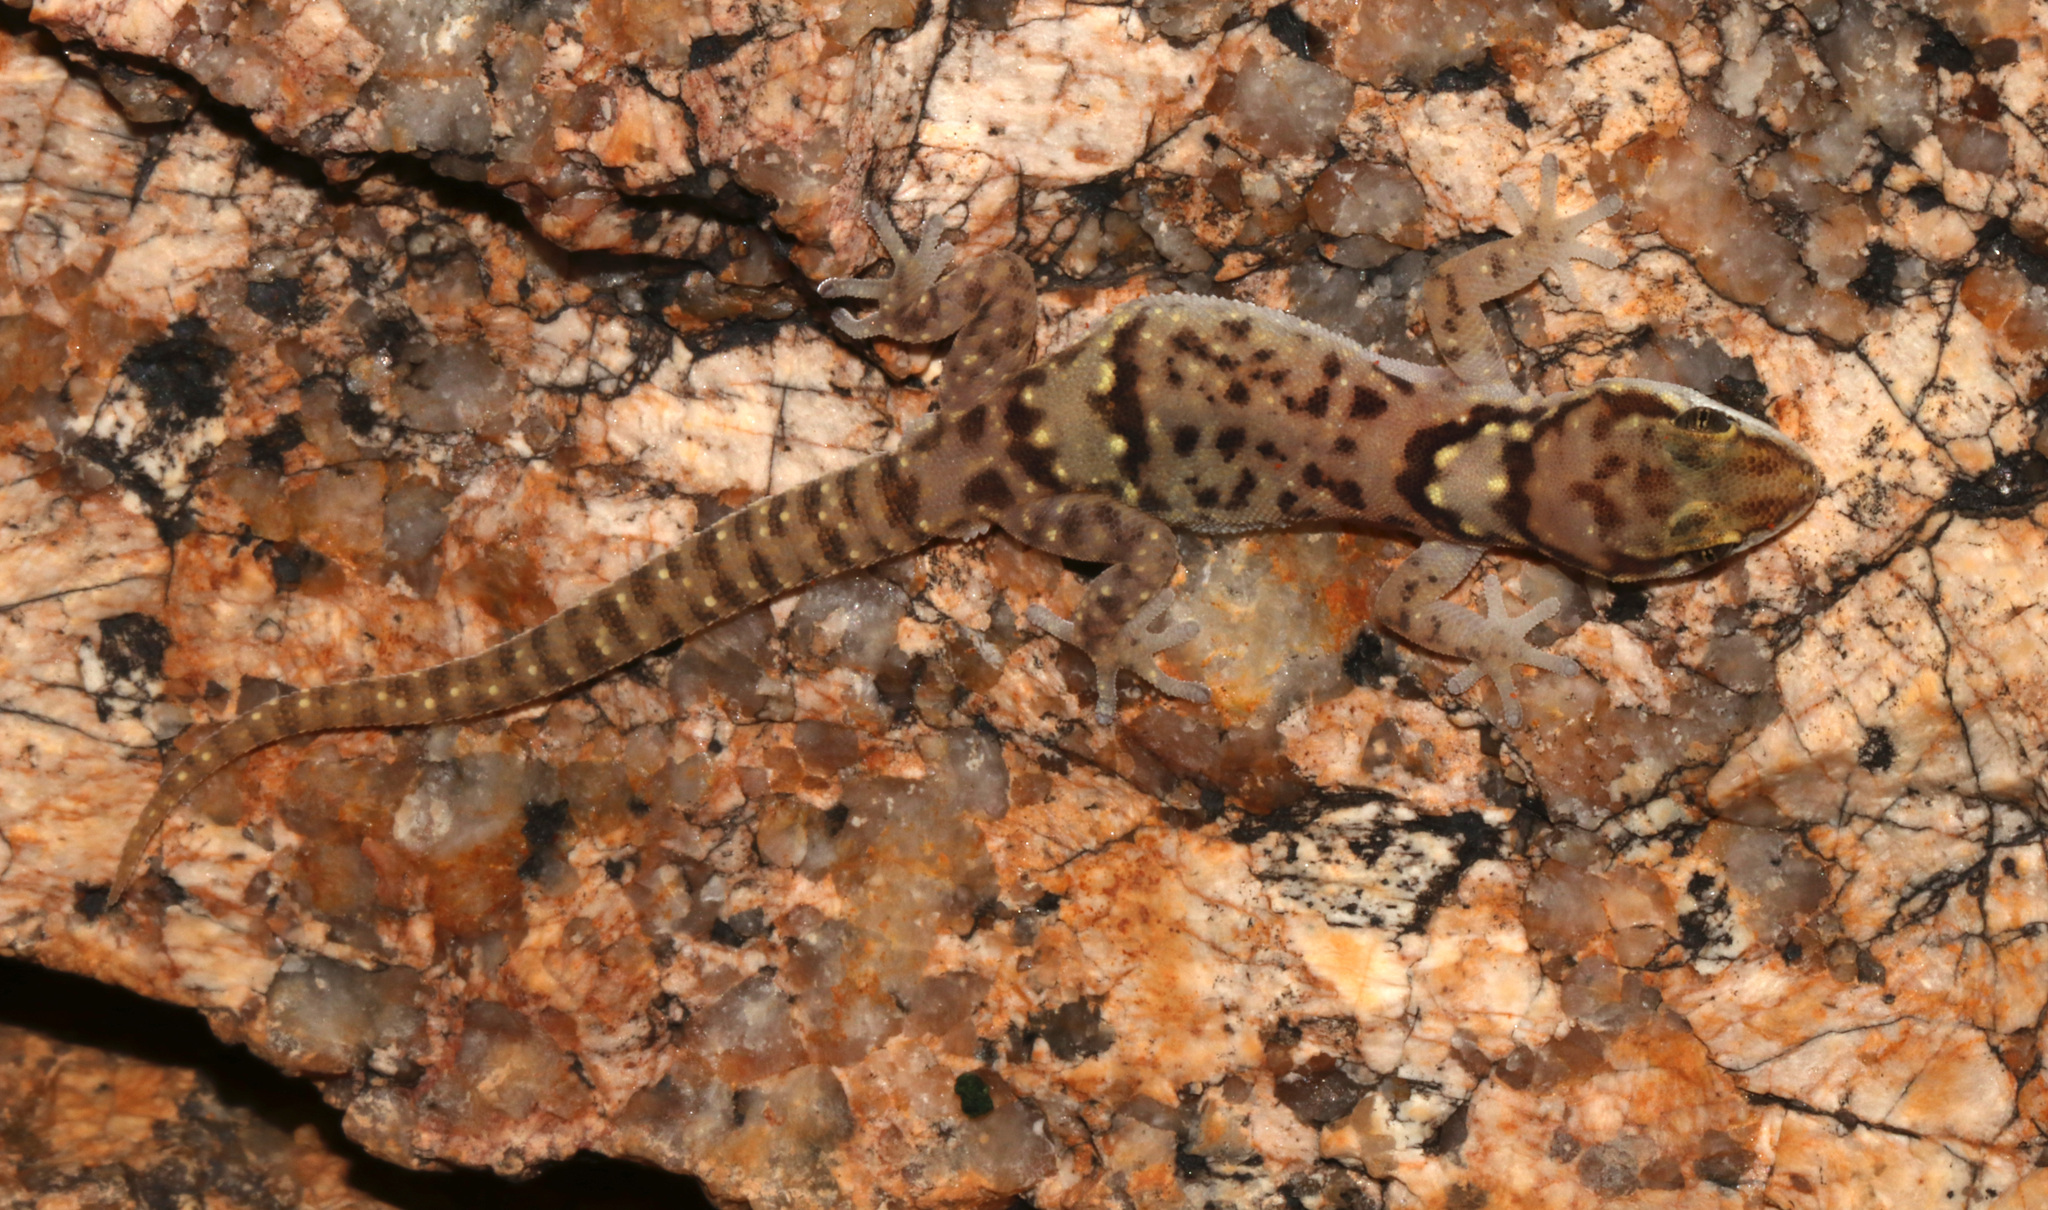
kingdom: Animalia
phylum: Chordata
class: Squamata
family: Gekkonidae
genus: Pachydactylus
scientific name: Pachydactylus bicolor
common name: Two-colored thick-toed gecko
